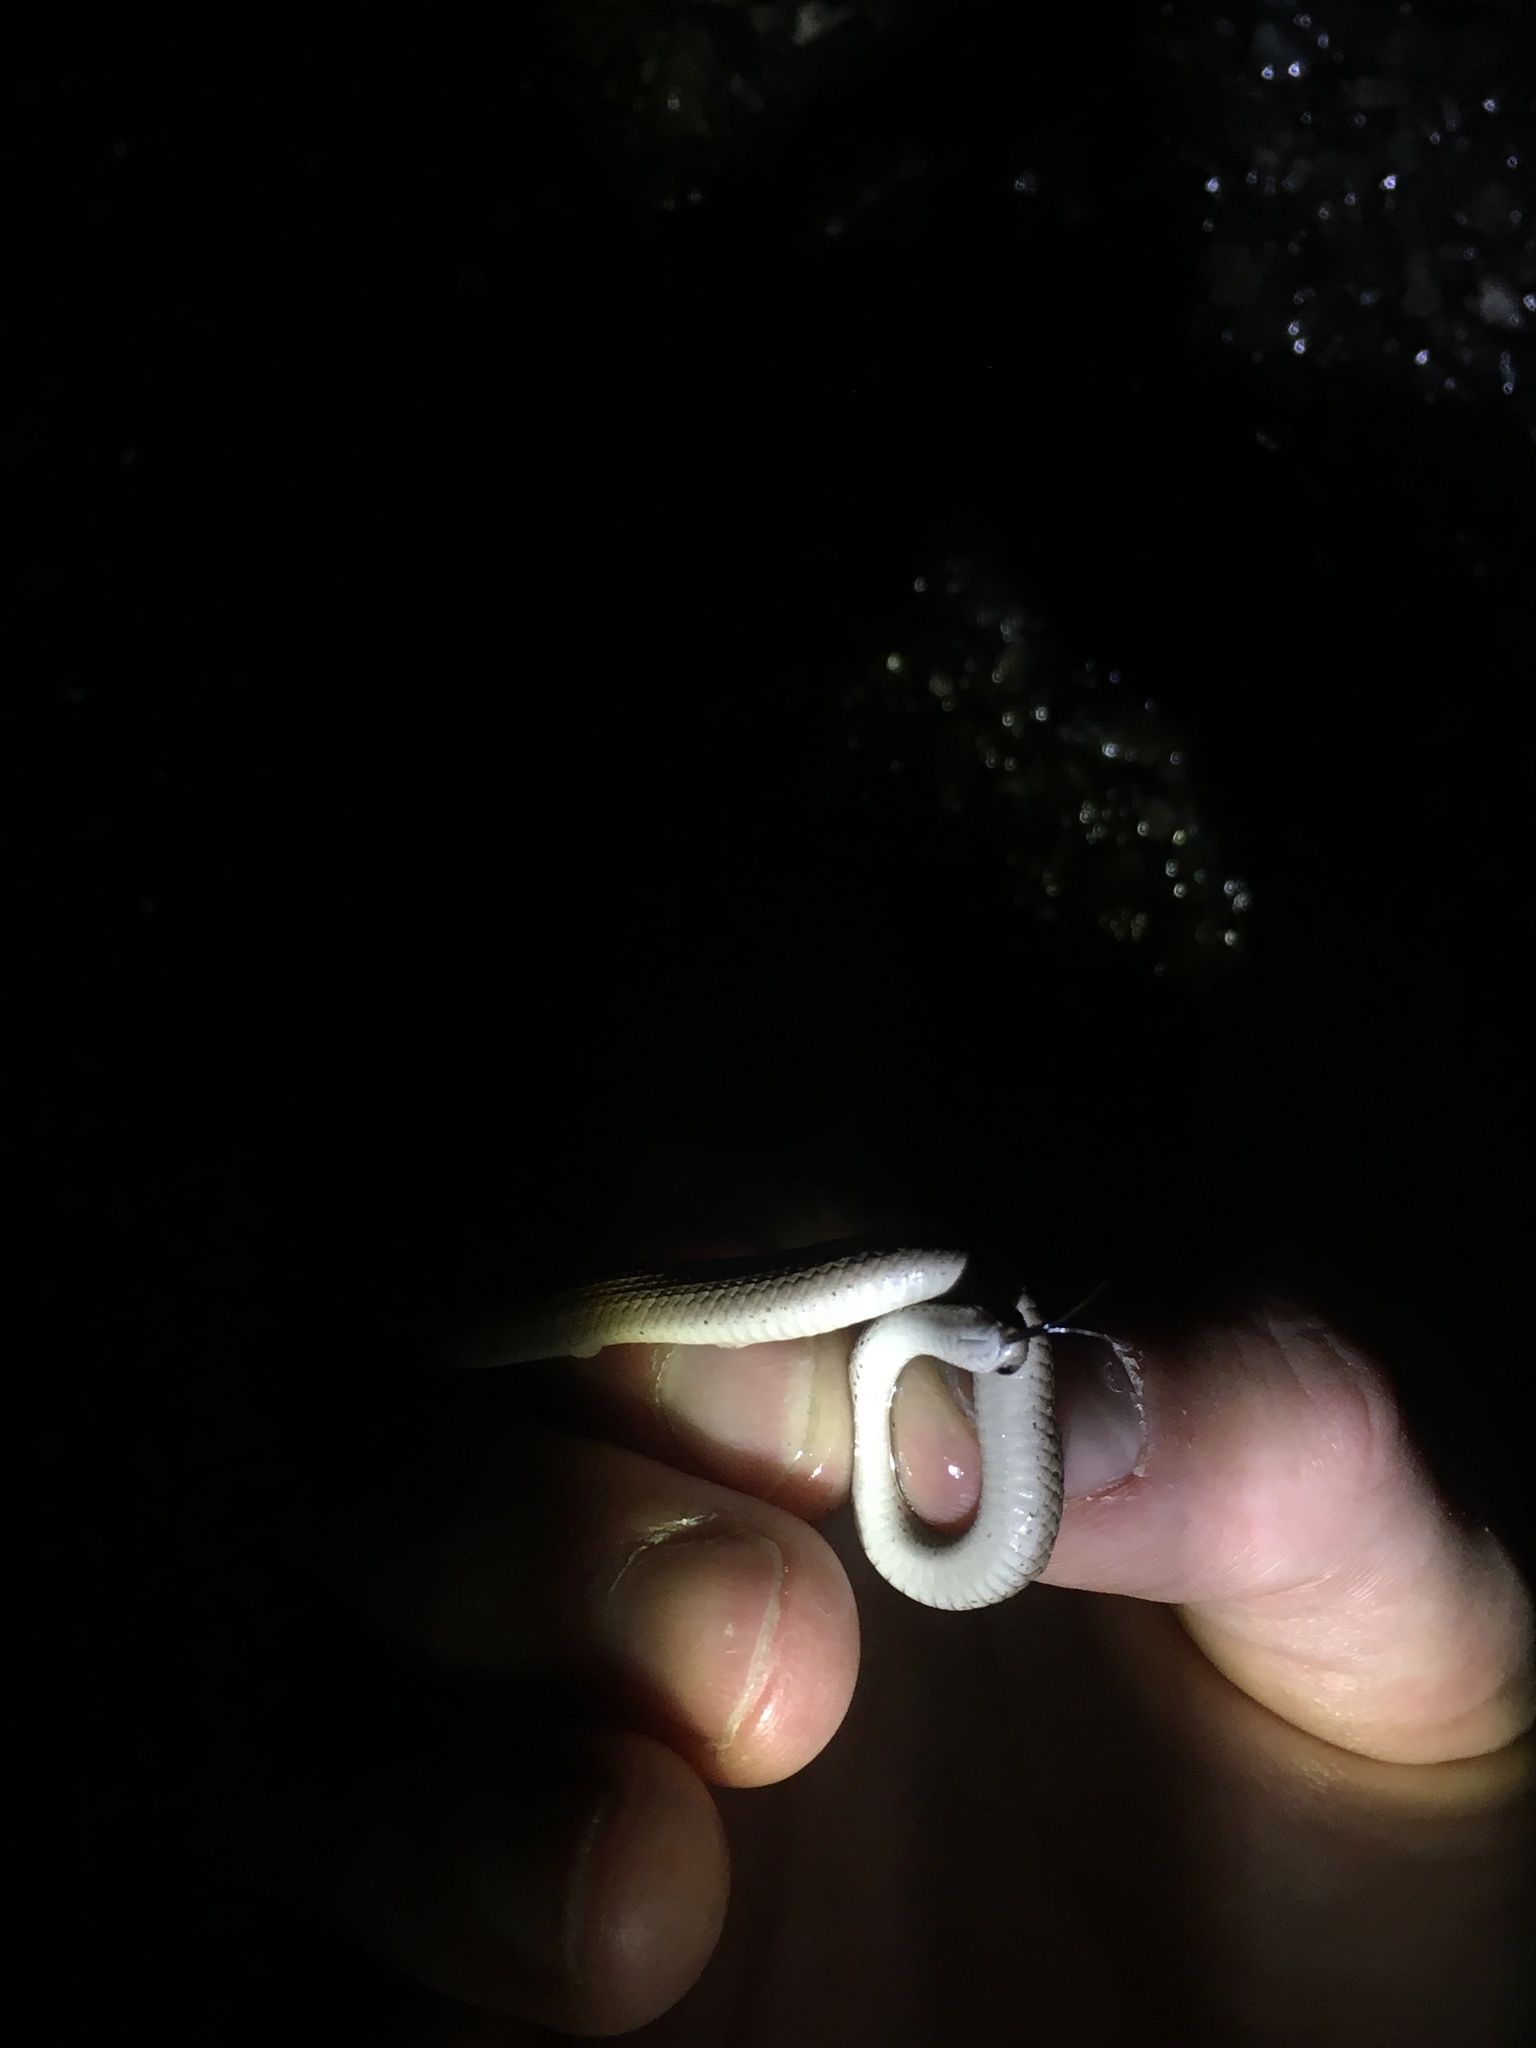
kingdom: Animalia
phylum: Chordata
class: Squamata
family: Colubridae
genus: Storeria
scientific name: Storeria dekayi
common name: (dekay’s) brown snake
